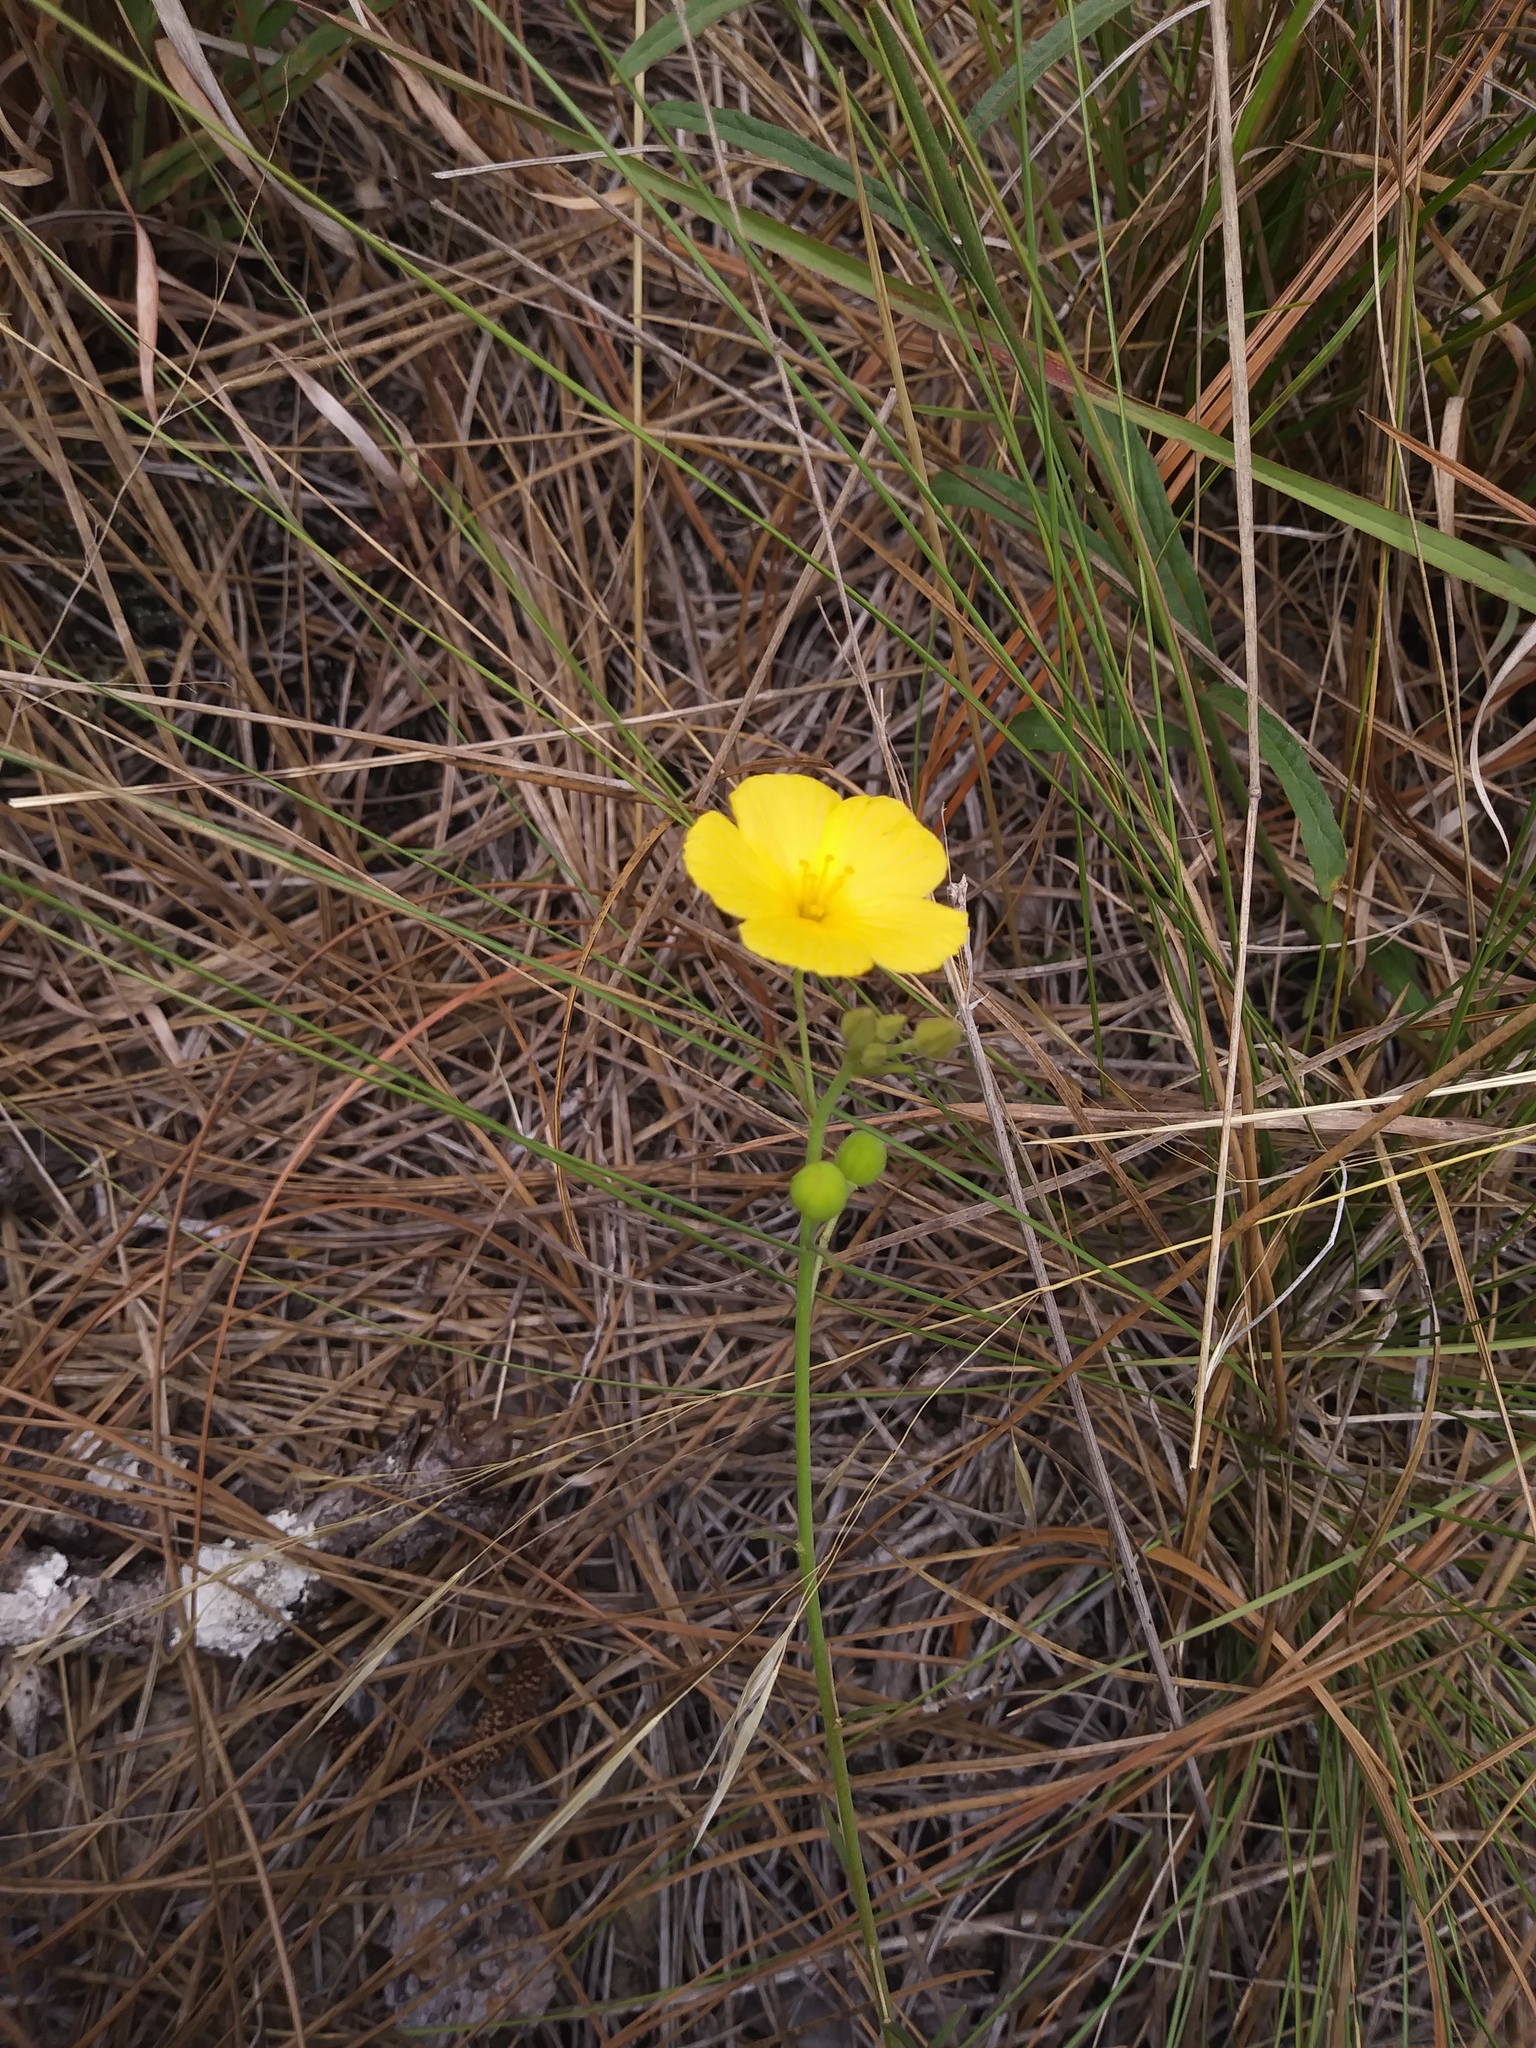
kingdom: Plantae
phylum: Tracheophyta
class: Magnoliopsida
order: Malpighiales
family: Turneraceae
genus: Piriqueta
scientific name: Piriqueta cistoides
